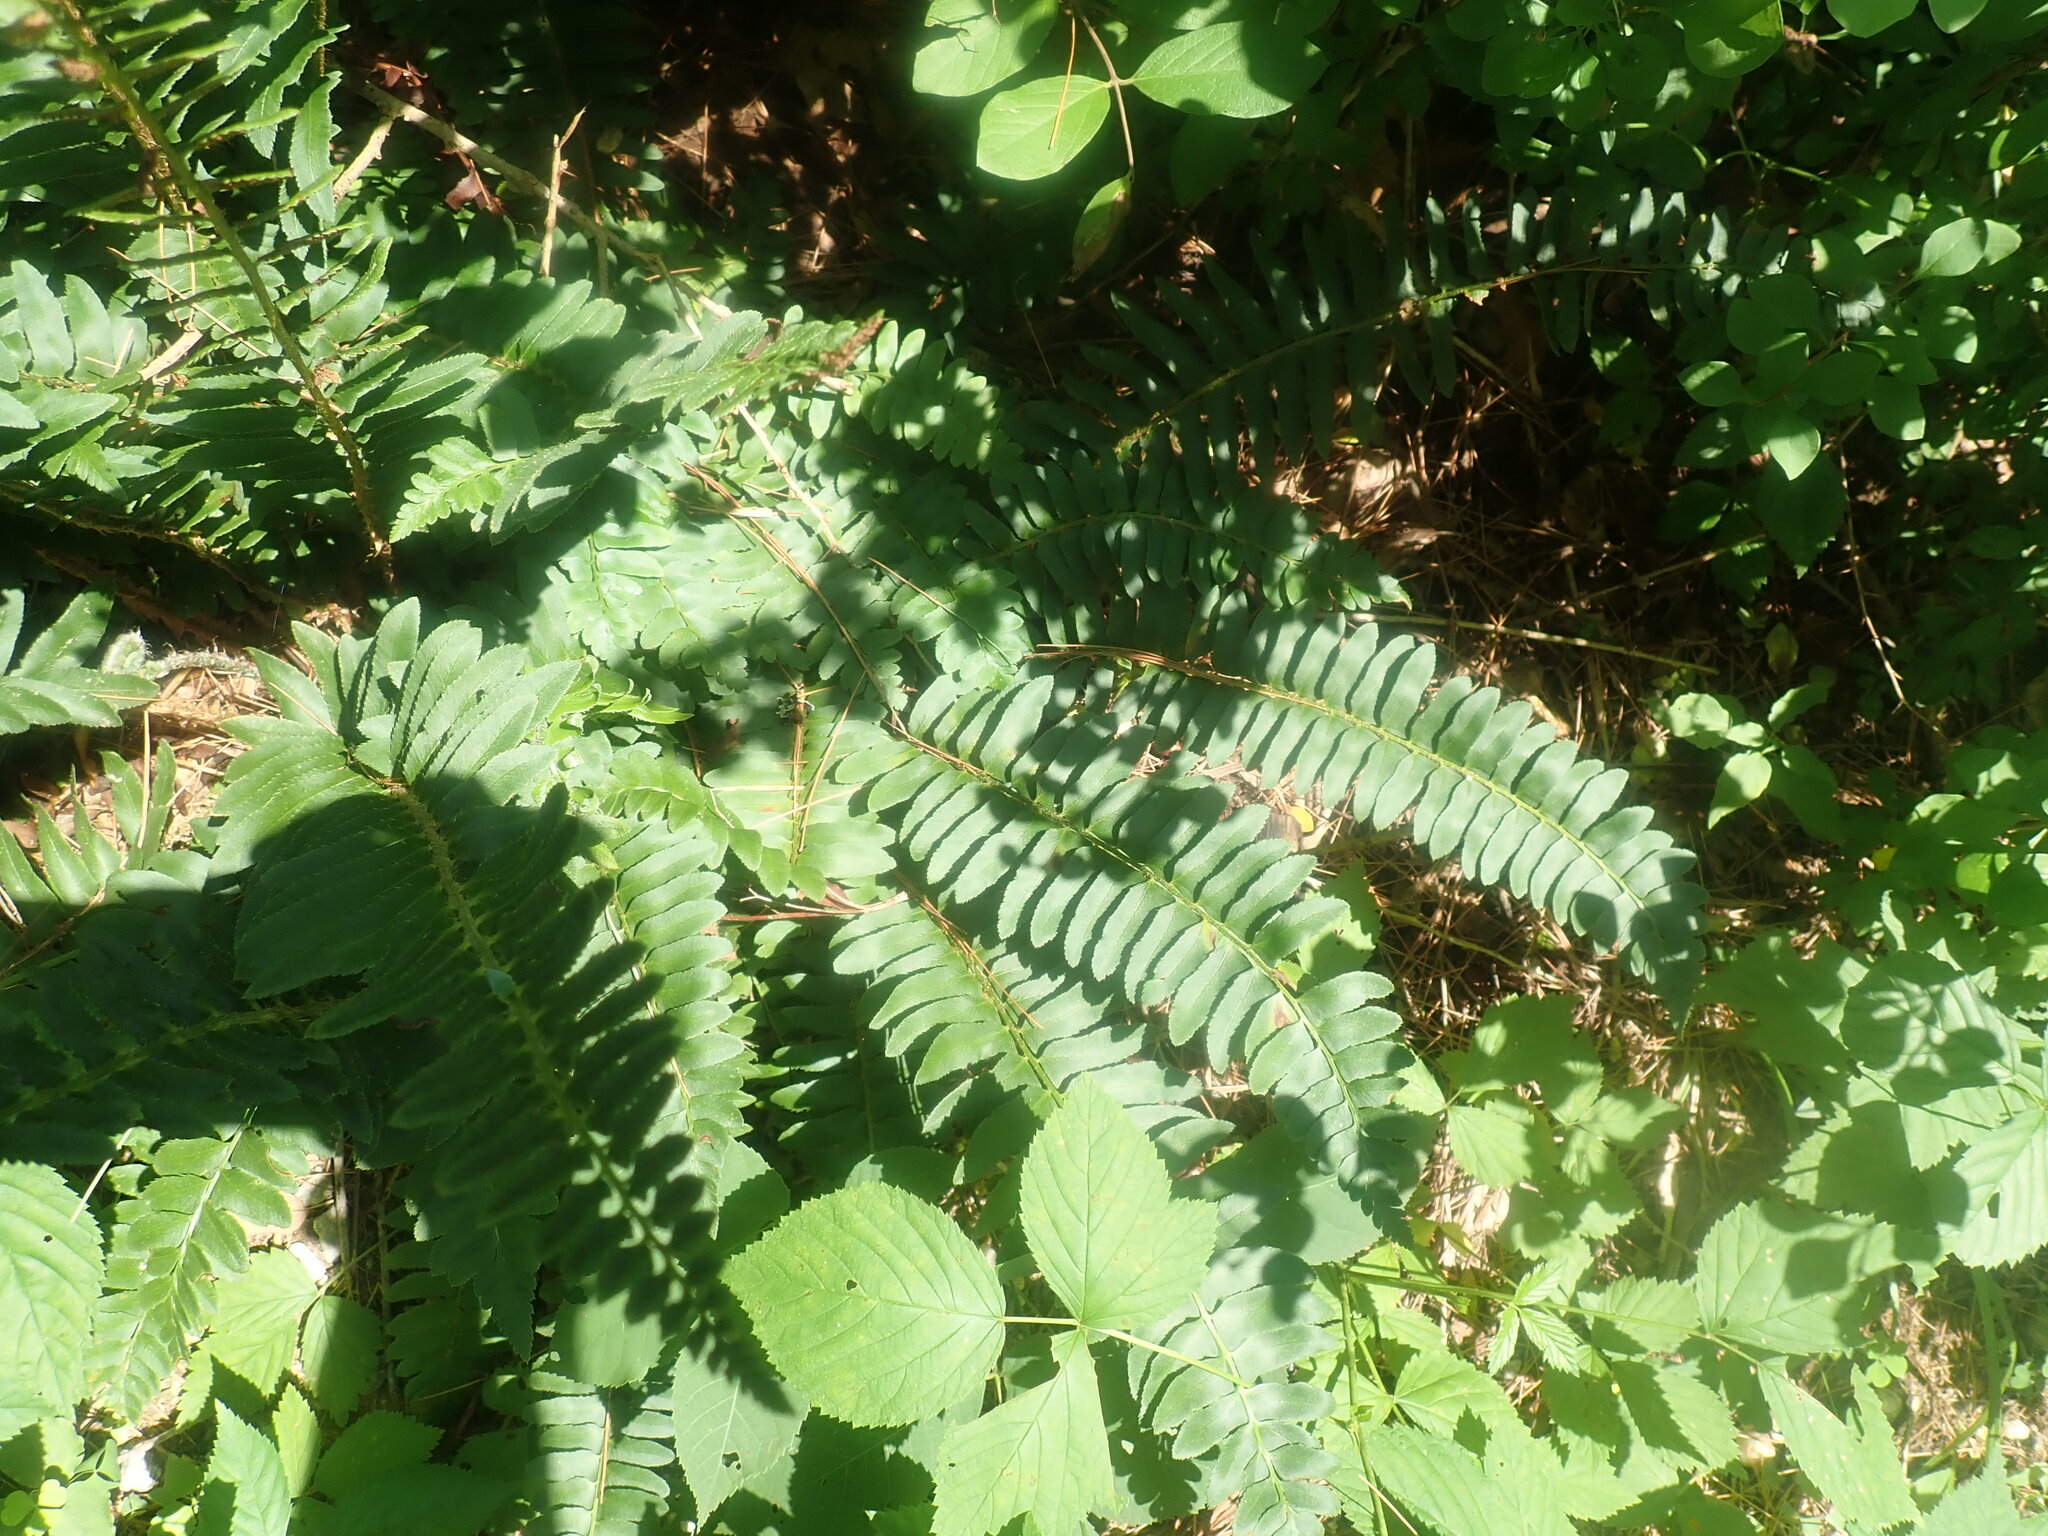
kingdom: Plantae
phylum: Tracheophyta
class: Polypodiopsida
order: Polypodiales
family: Dryopteridaceae
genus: Polystichum
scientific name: Polystichum acrostichoides
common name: Christmas fern
